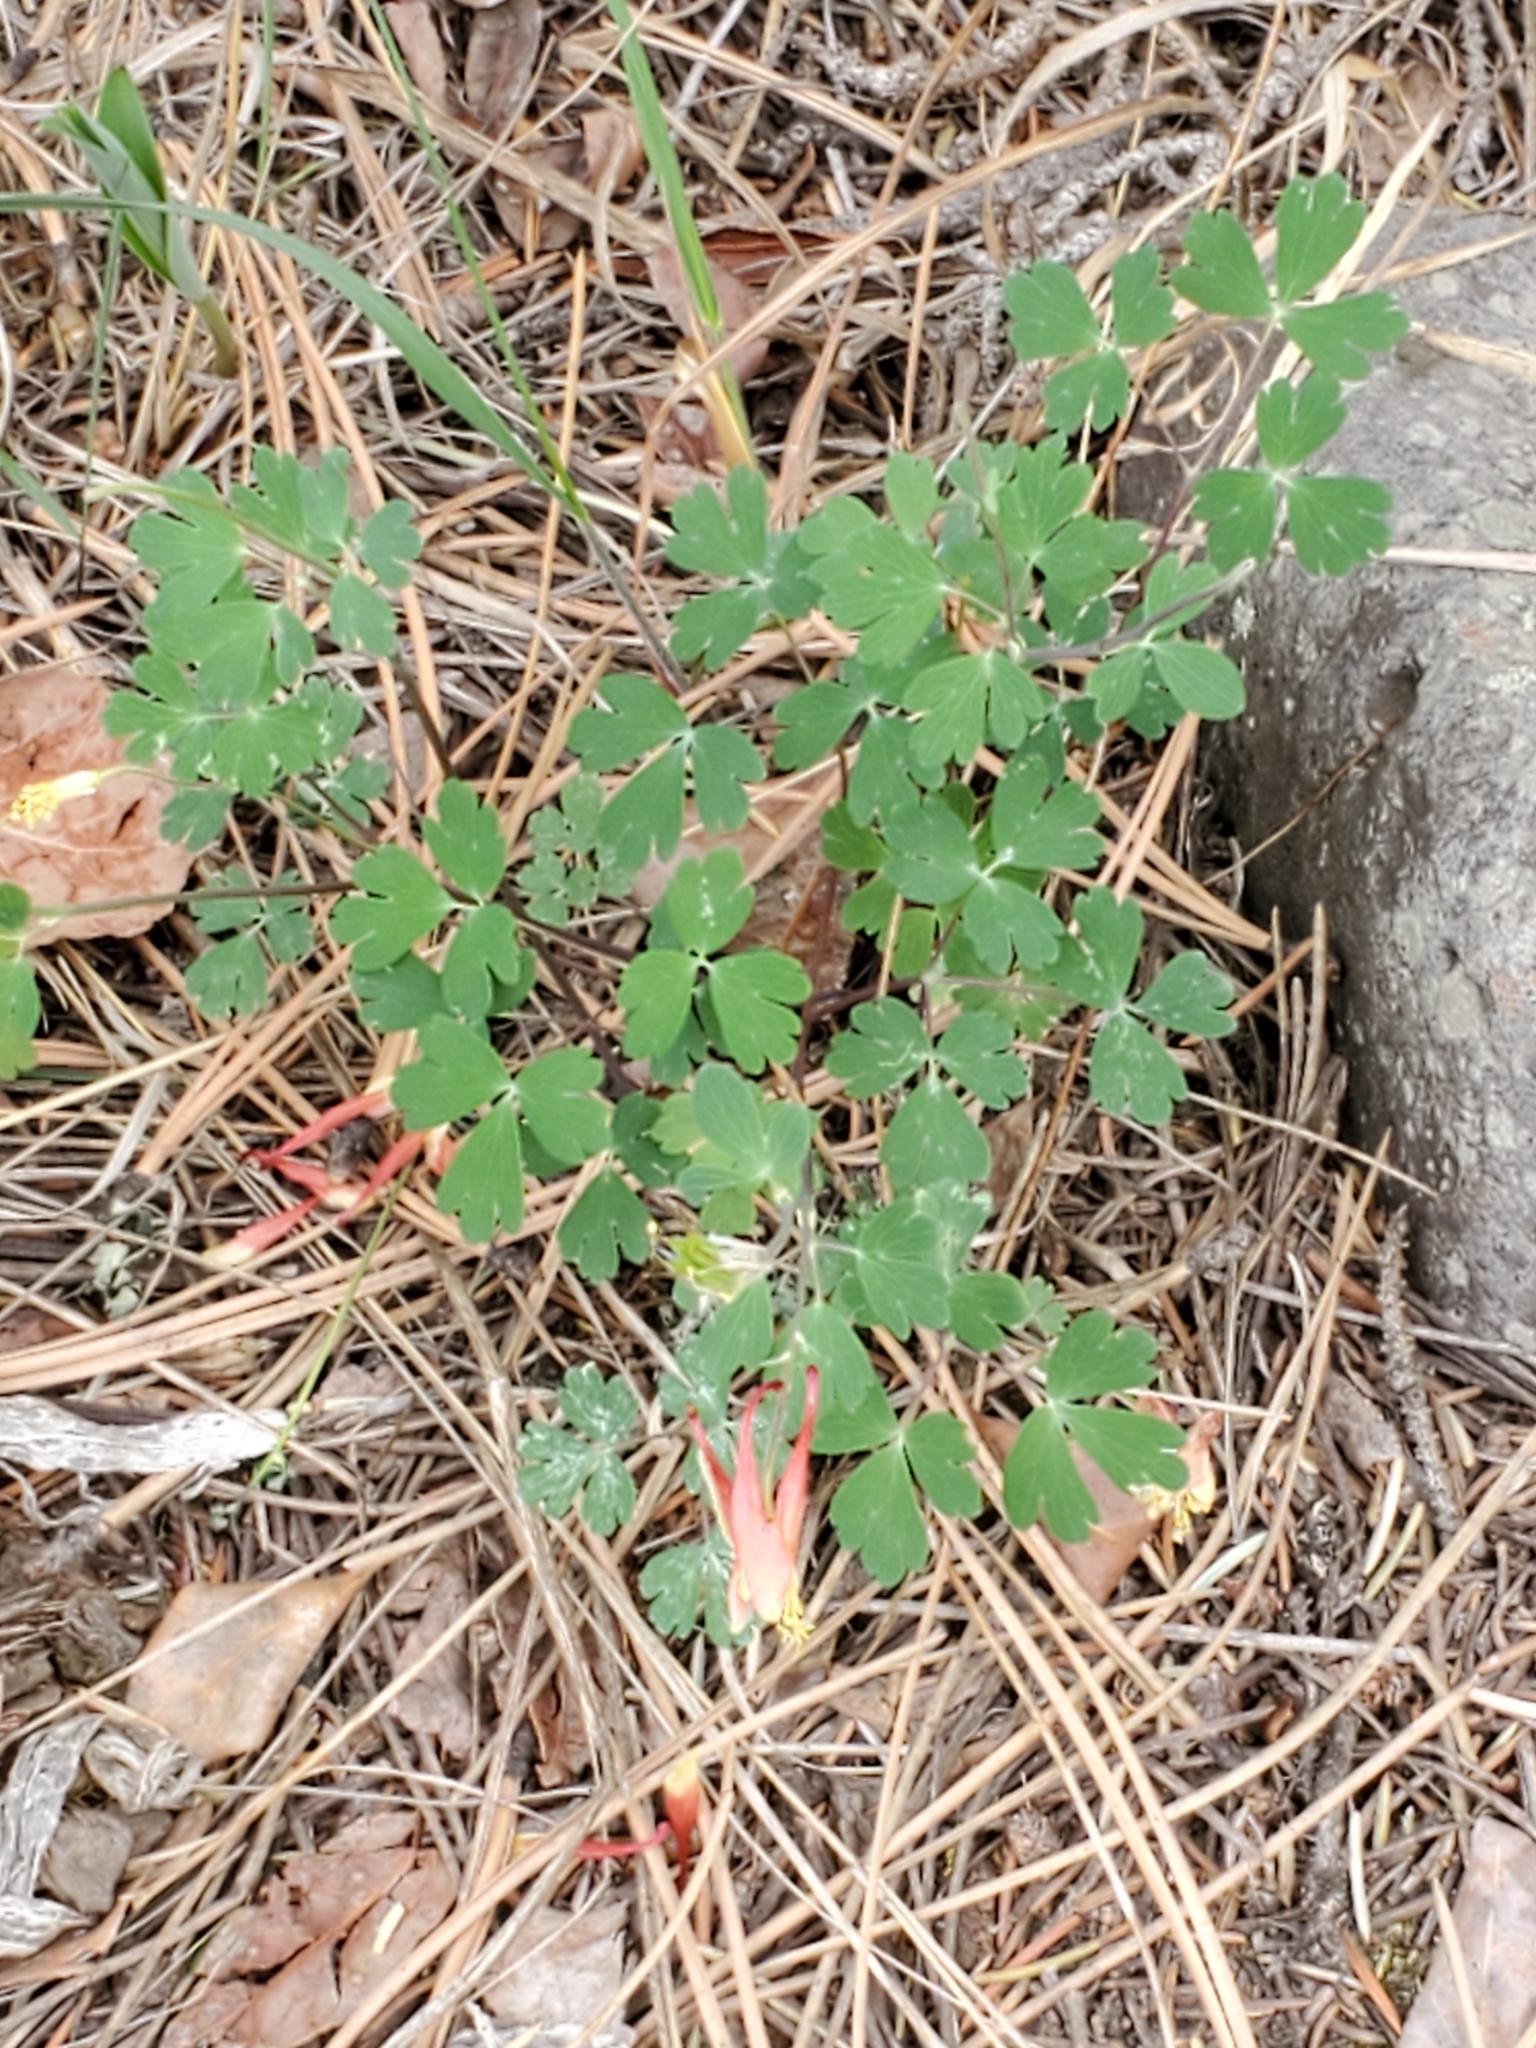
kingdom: Plantae
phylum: Tracheophyta
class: Magnoliopsida
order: Ranunculales
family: Ranunculaceae
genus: Aquilegia
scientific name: Aquilegia elegantula
